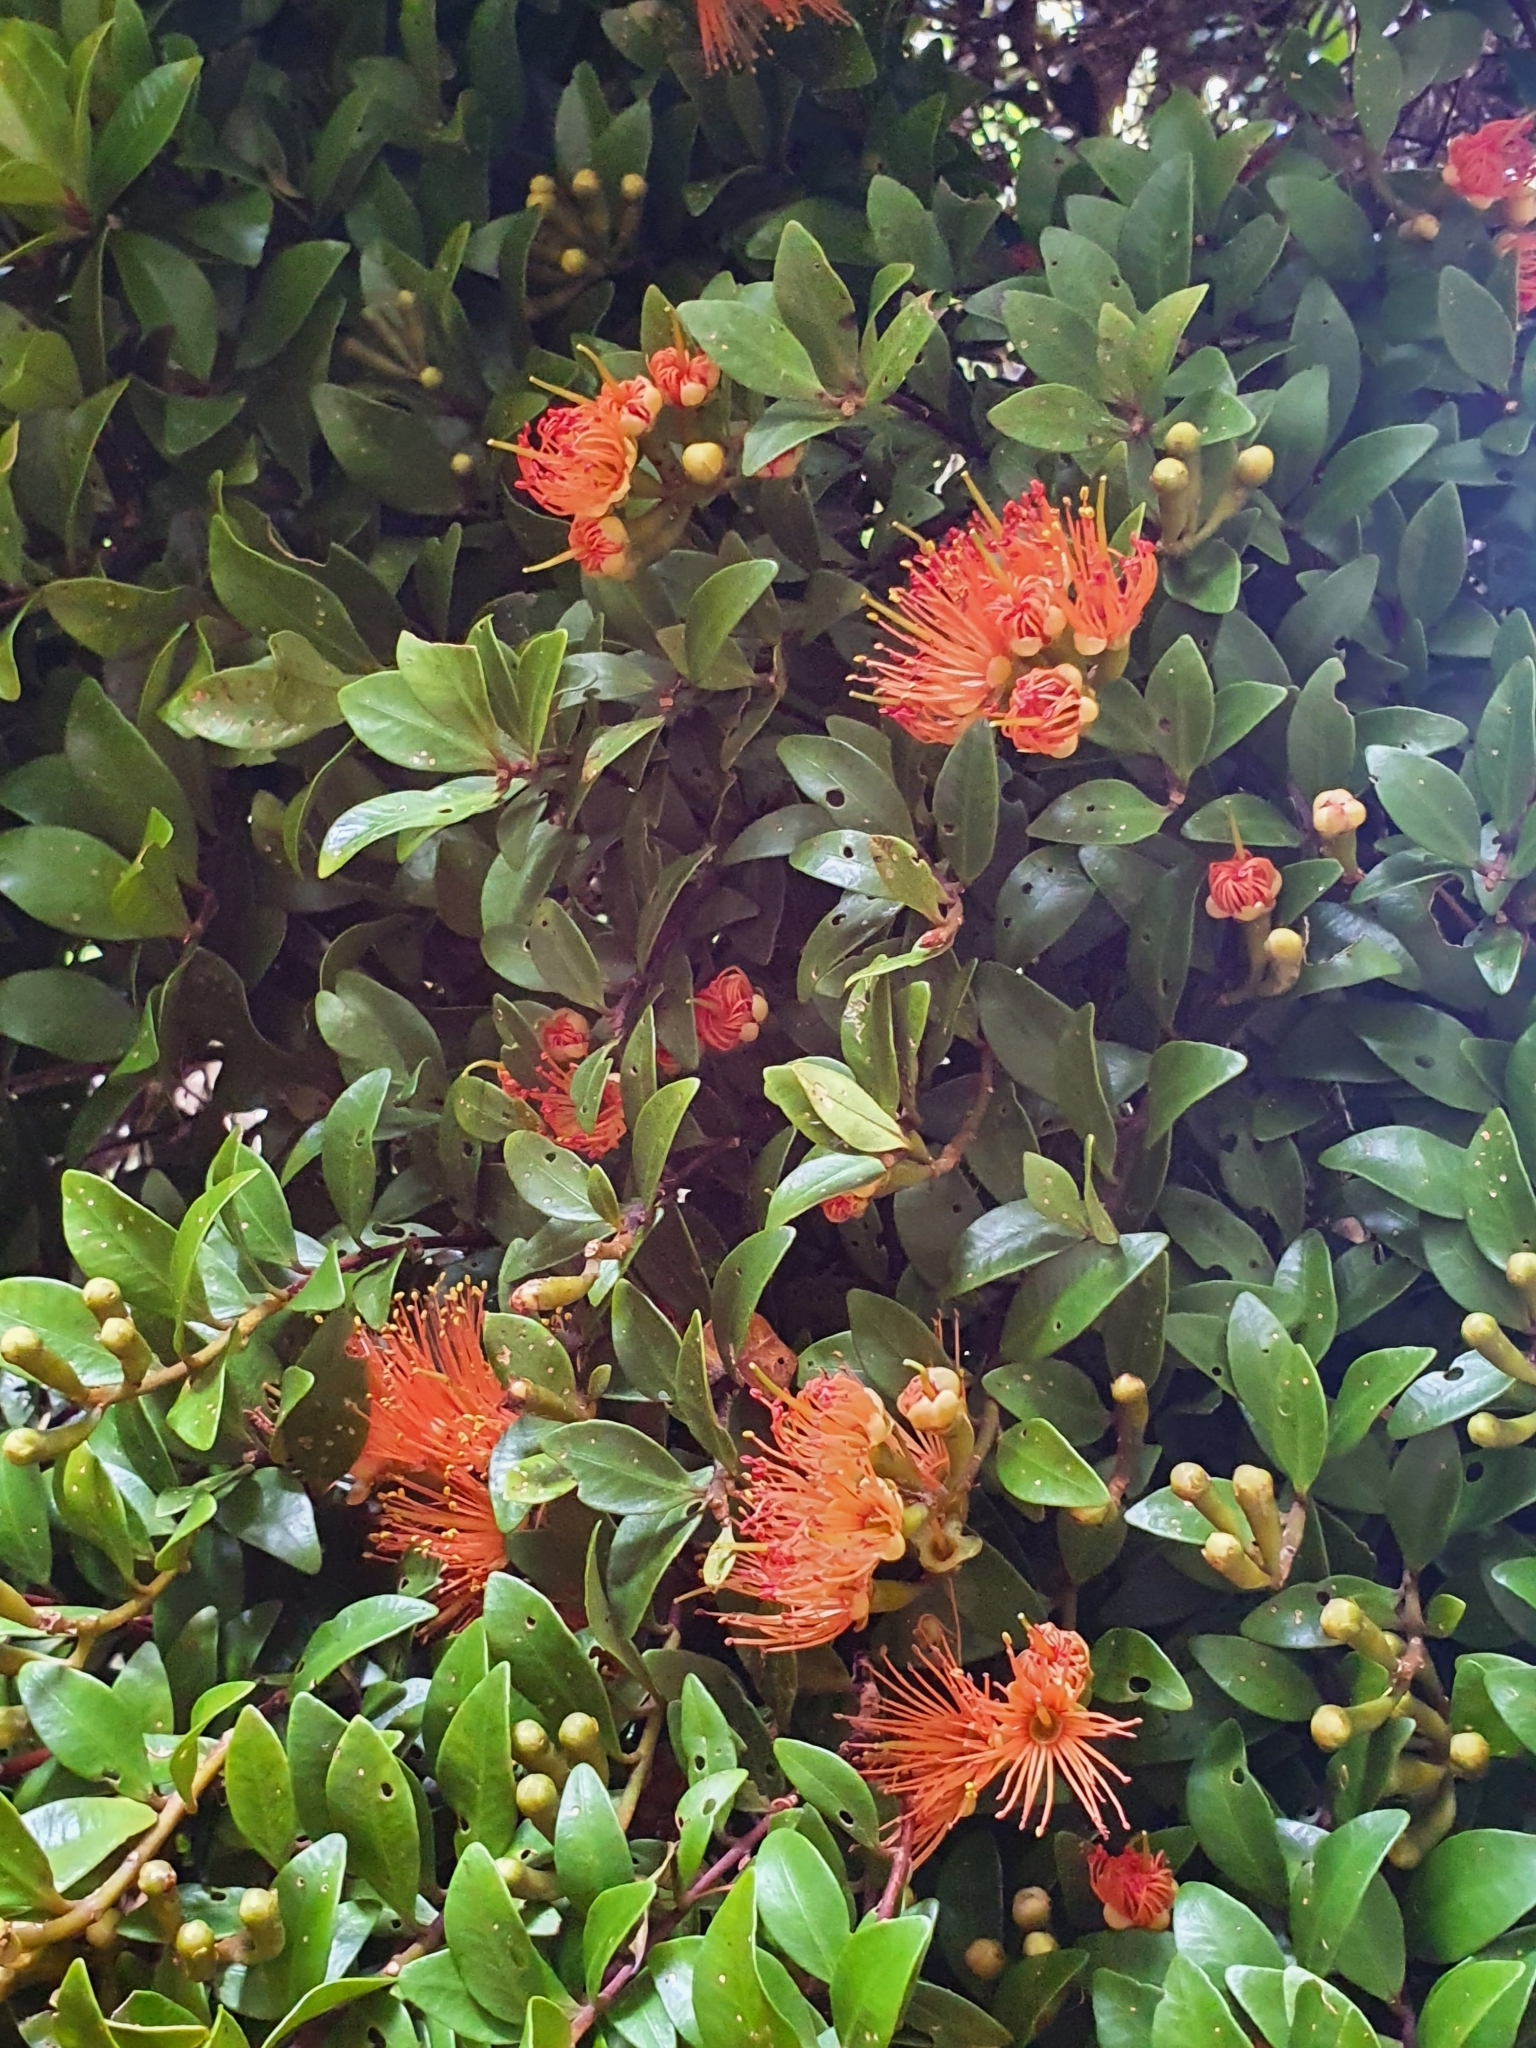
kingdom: Plantae
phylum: Tracheophyta
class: Magnoliopsida
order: Myrtales
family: Myrtaceae
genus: Metrosideros
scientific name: Metrosideros fulgens
